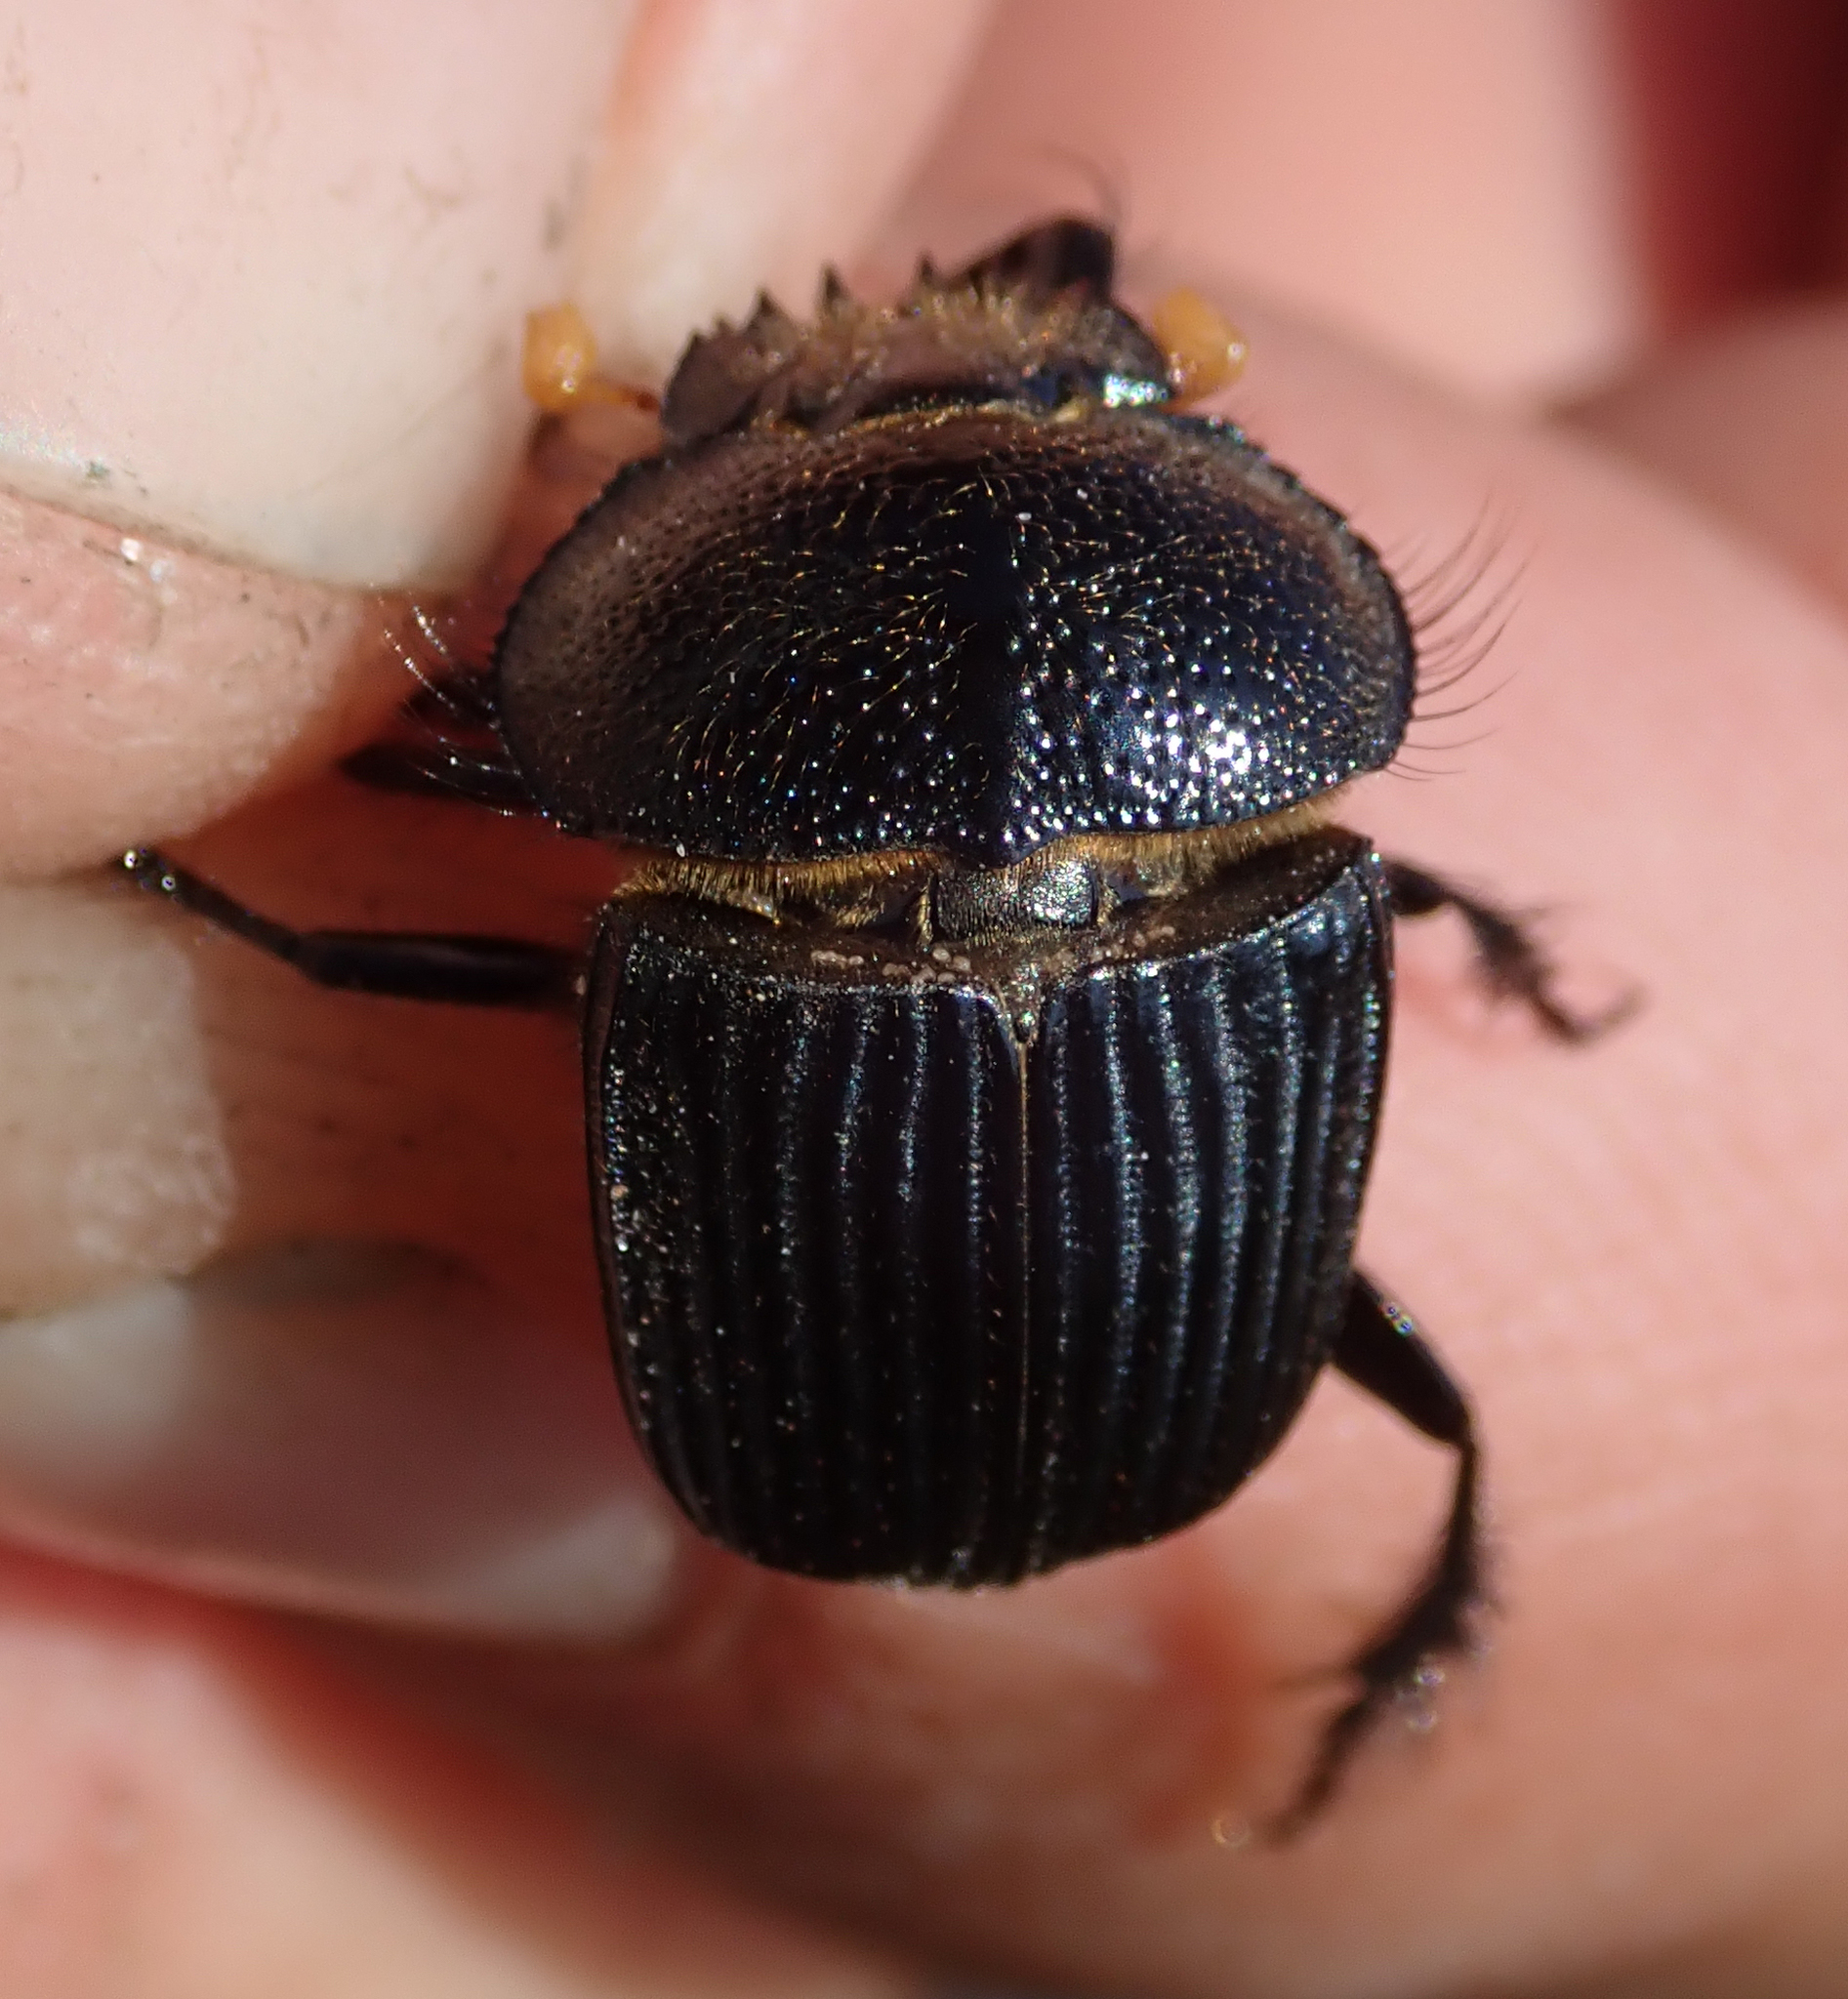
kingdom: Animalia
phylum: Arthropoda
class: Insecta
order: Coleoptera
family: Scarabaeidae
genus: Scarabaeolus
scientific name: Scarabaeolus afronitidus
